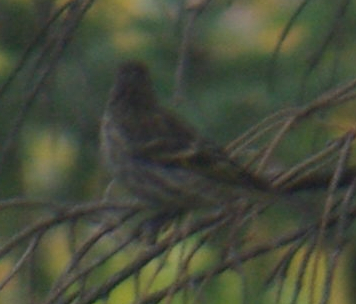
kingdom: Animalia
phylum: Chordata
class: Aves
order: Passeriformes
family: Fringillidae
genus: Spinus
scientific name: Spinus pinus
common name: Pine siskin
